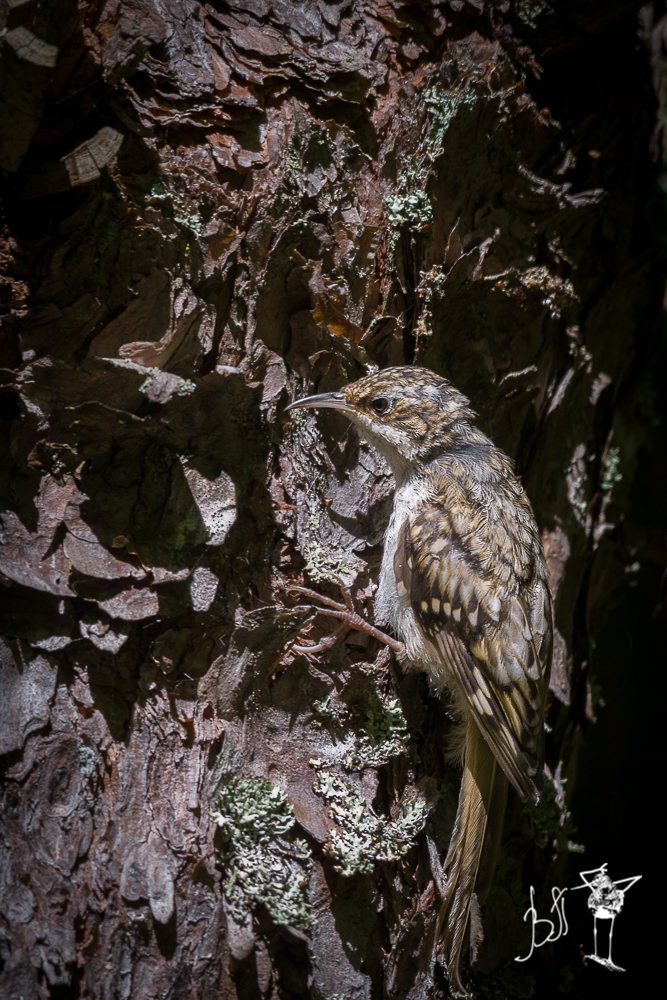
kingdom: Animalia
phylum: Chordata
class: Aves
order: Passeriformes
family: Certhiidae
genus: Certhia
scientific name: Certhia familiaris
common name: Eurasian treecreeper
